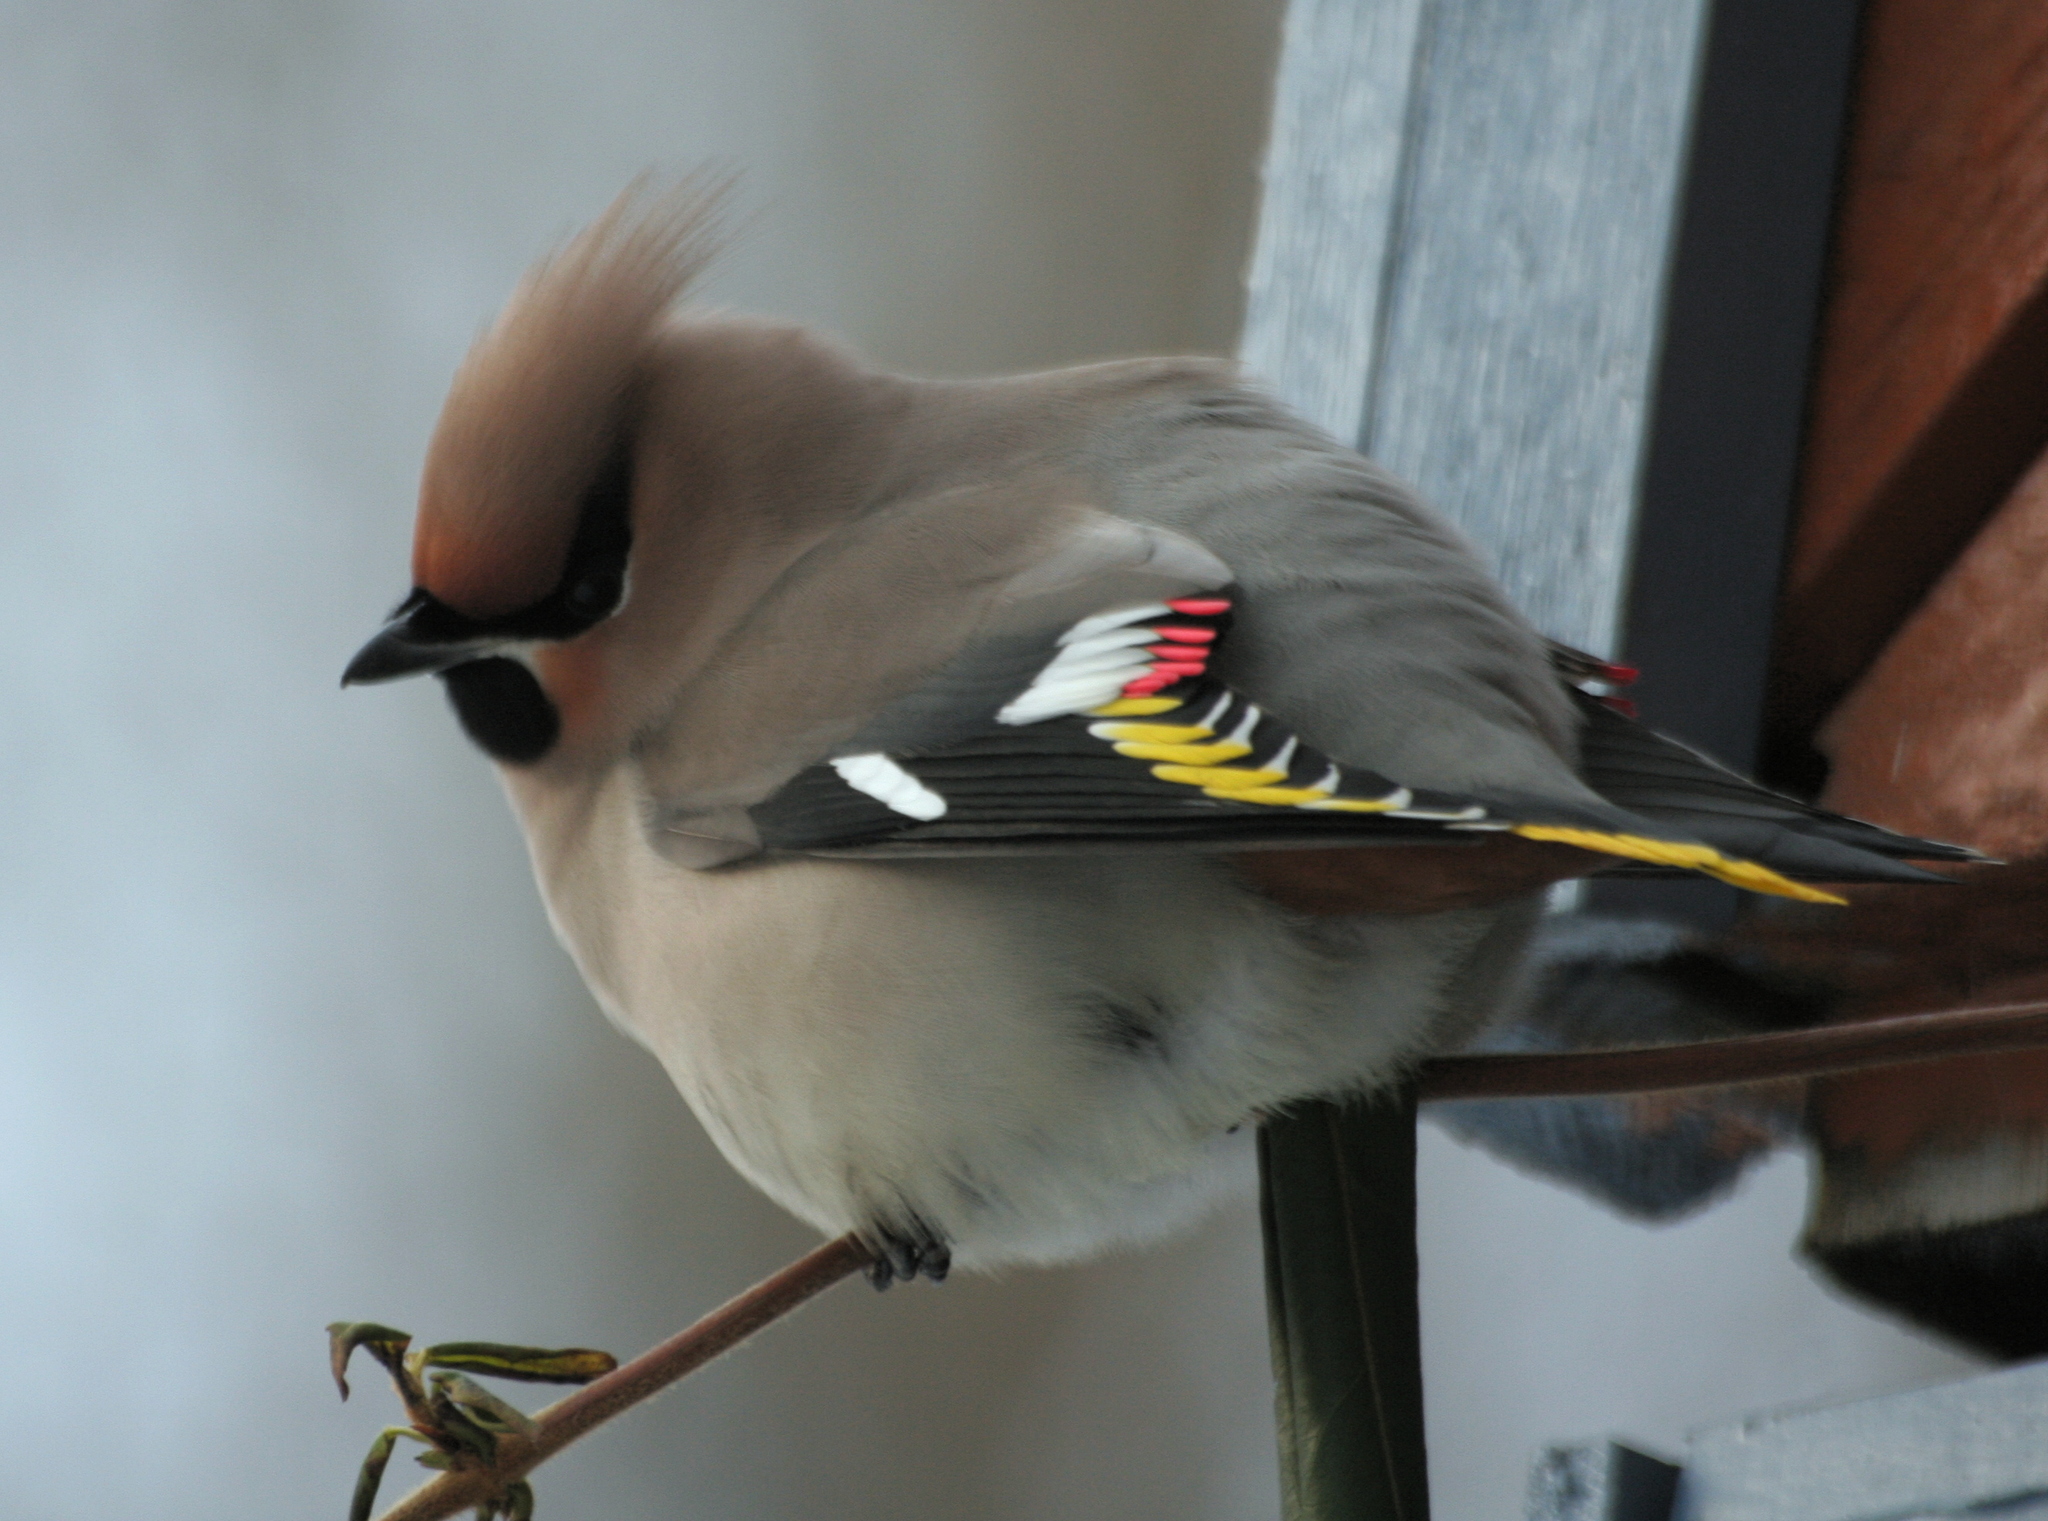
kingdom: Animalia
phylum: Chordata
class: Aves
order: Passeriformes
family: Bombycillidae
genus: Bombycilla
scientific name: Bombycilla garrulus
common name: Bohemian waxwing
